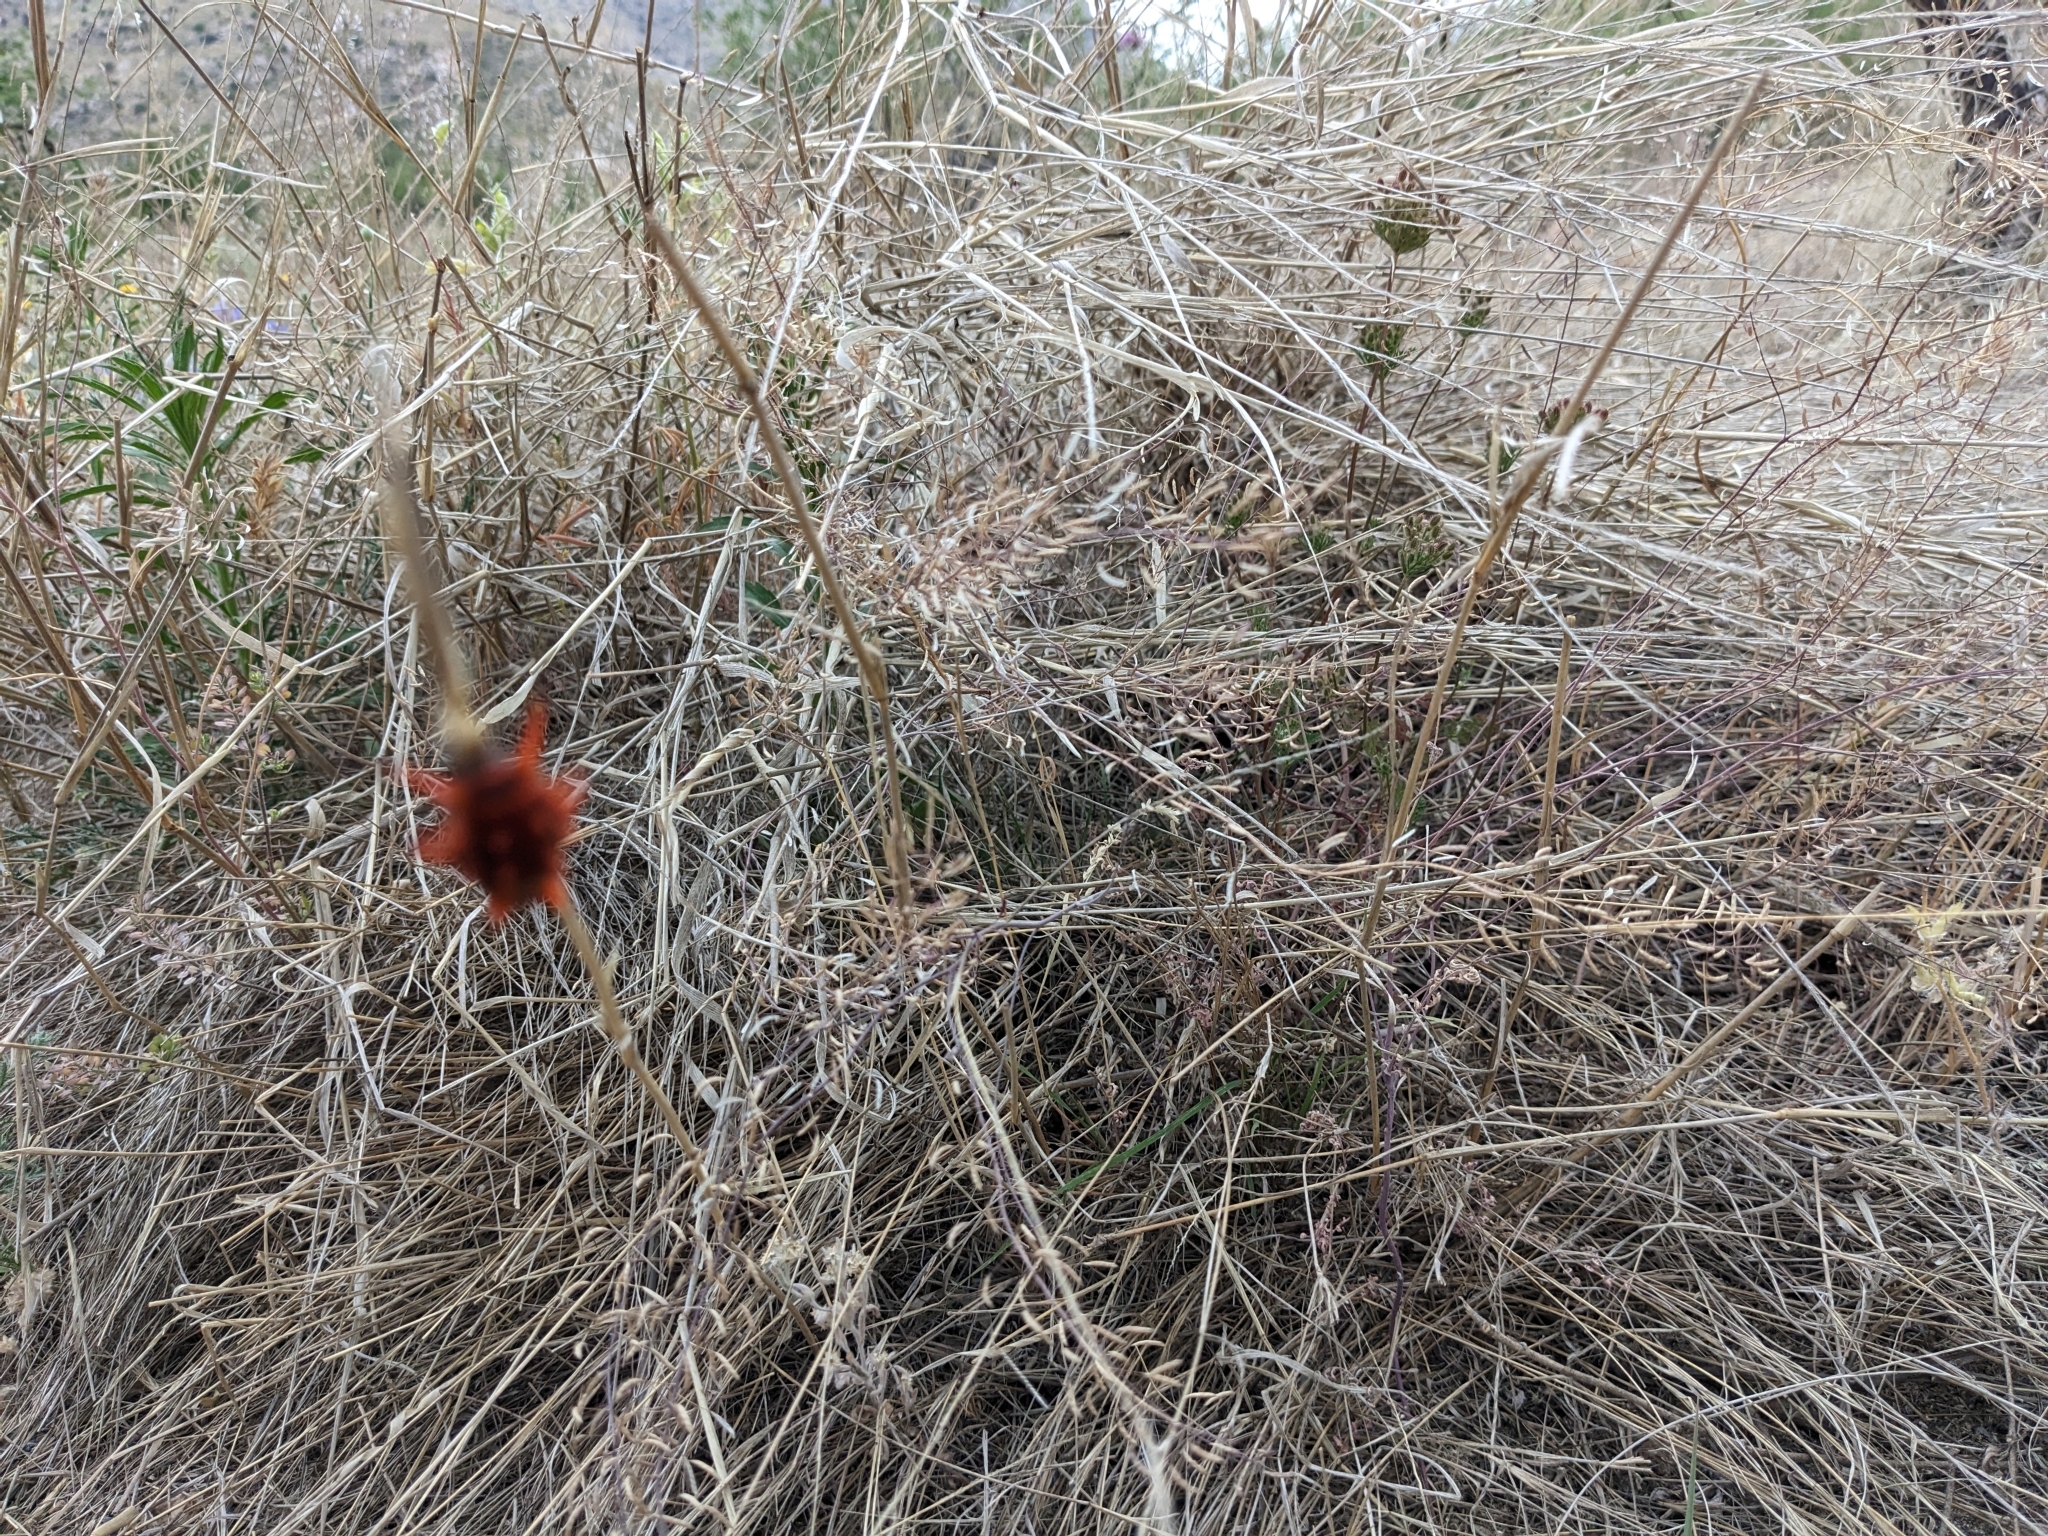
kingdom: Animalia
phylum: Arthropoda
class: Insecta
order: Lepidoptera
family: Papilionidae
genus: Battus
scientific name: Battus philenor
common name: Pipevine swallowtail
